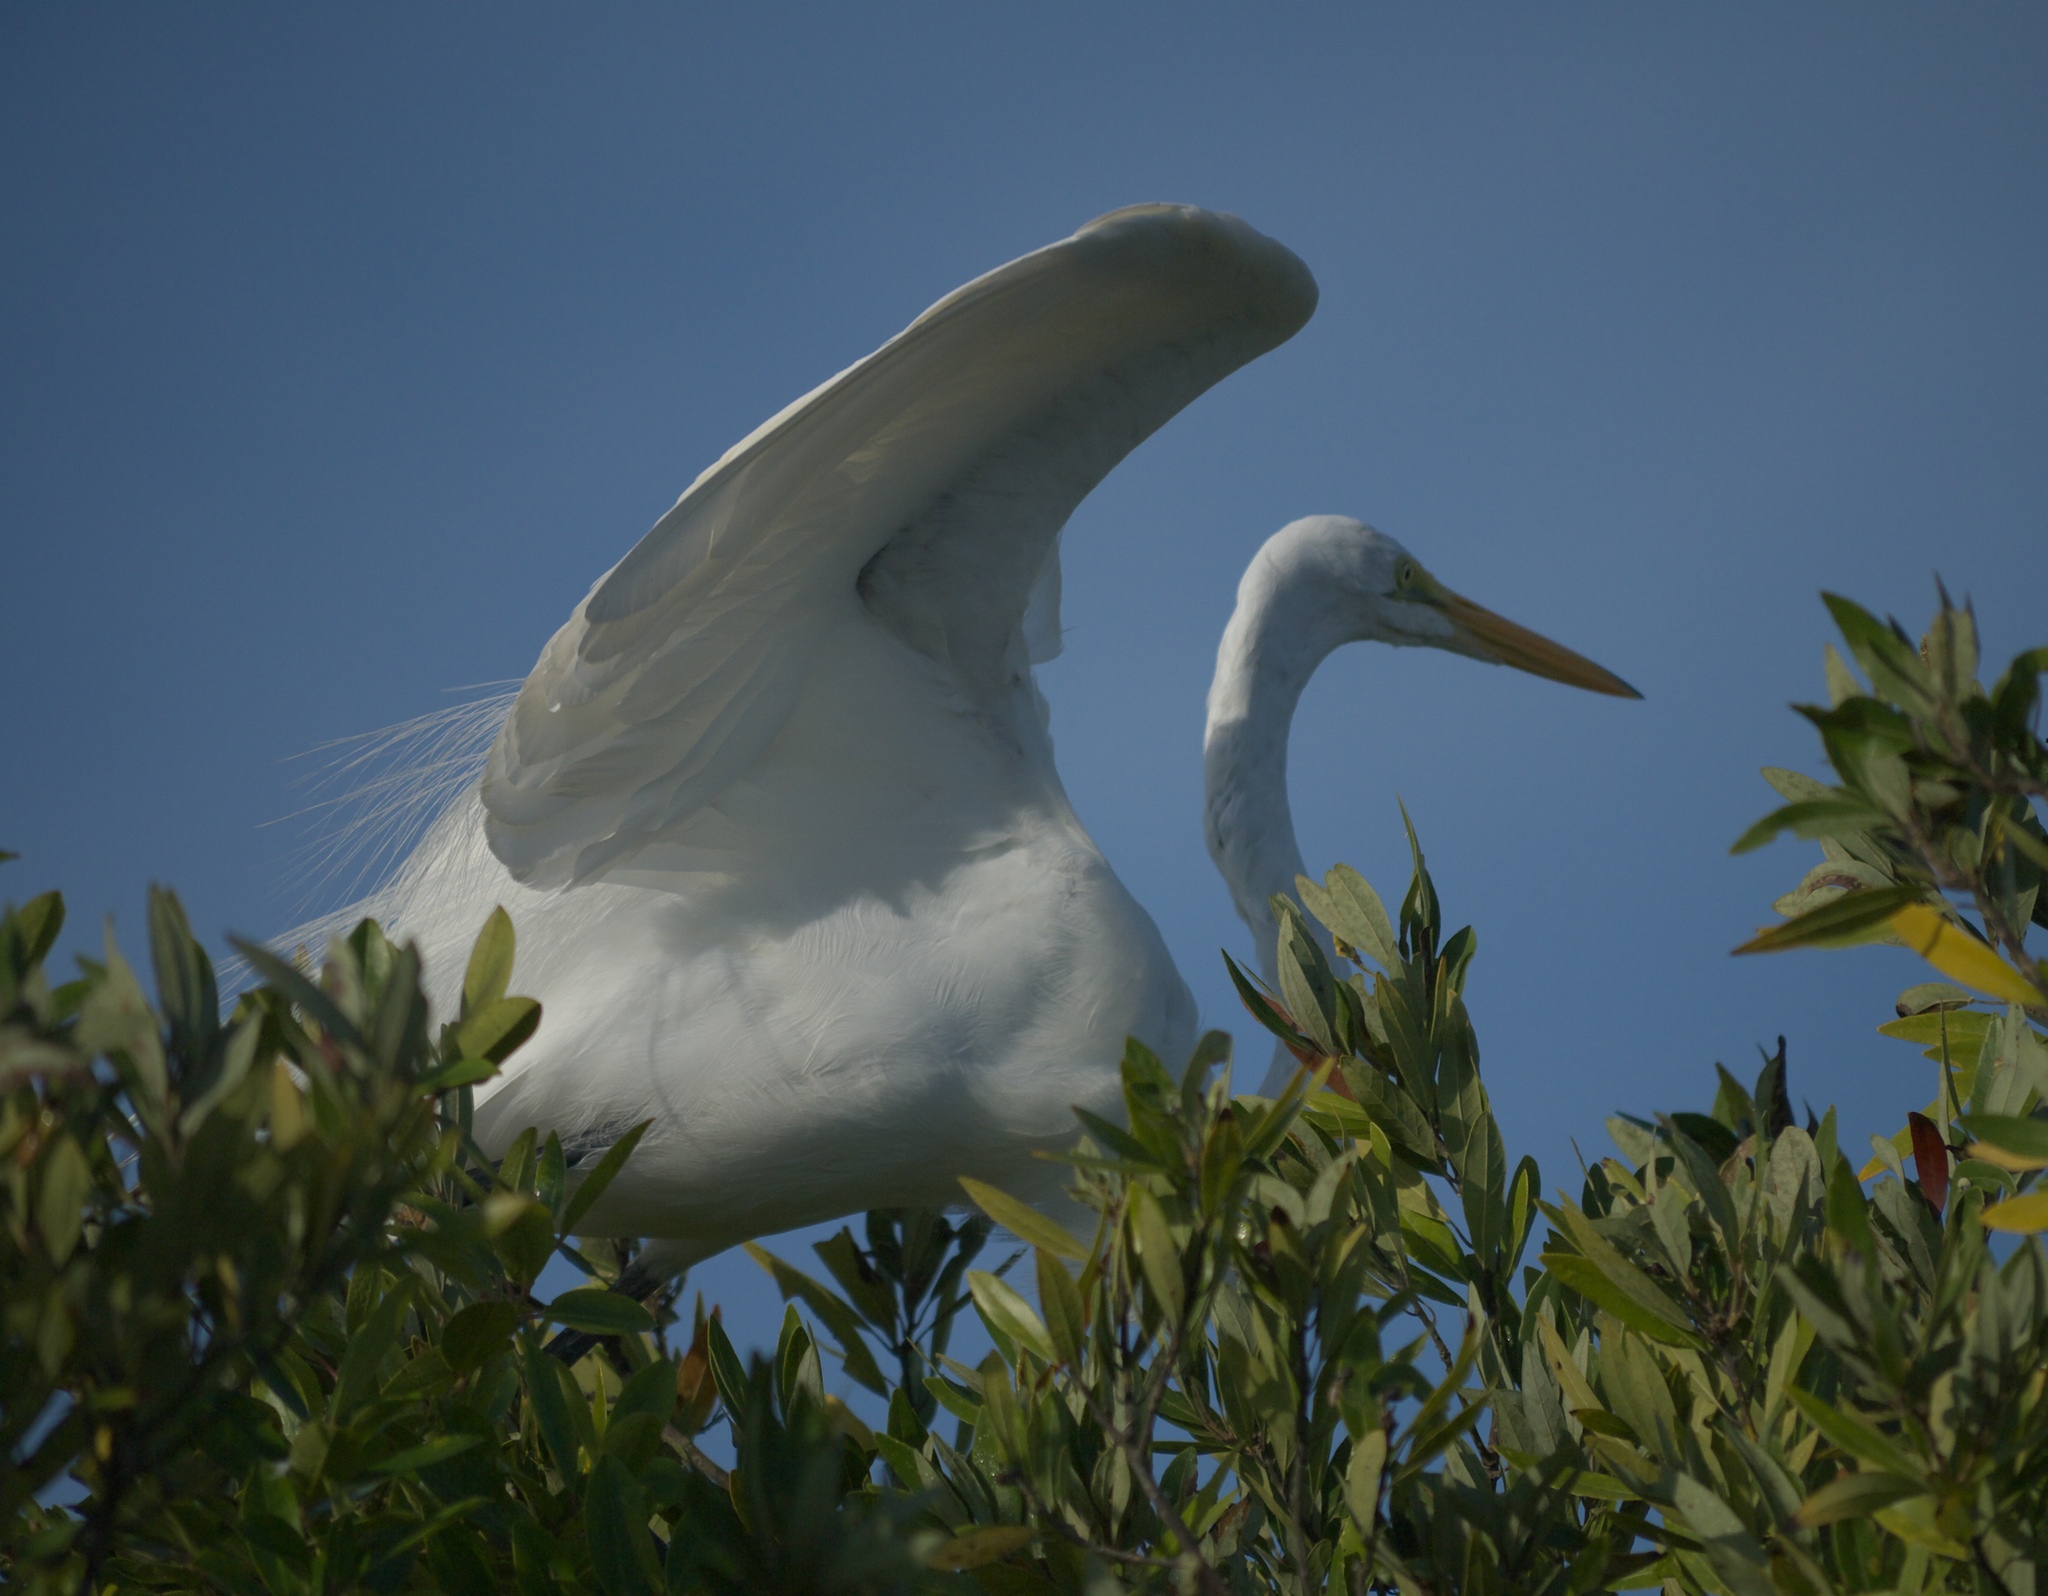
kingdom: Animalia
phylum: Chordata
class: Aves
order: Pelecaniformes
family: Ardeidae
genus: Ardea
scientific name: Ardea alba
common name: Great egret
